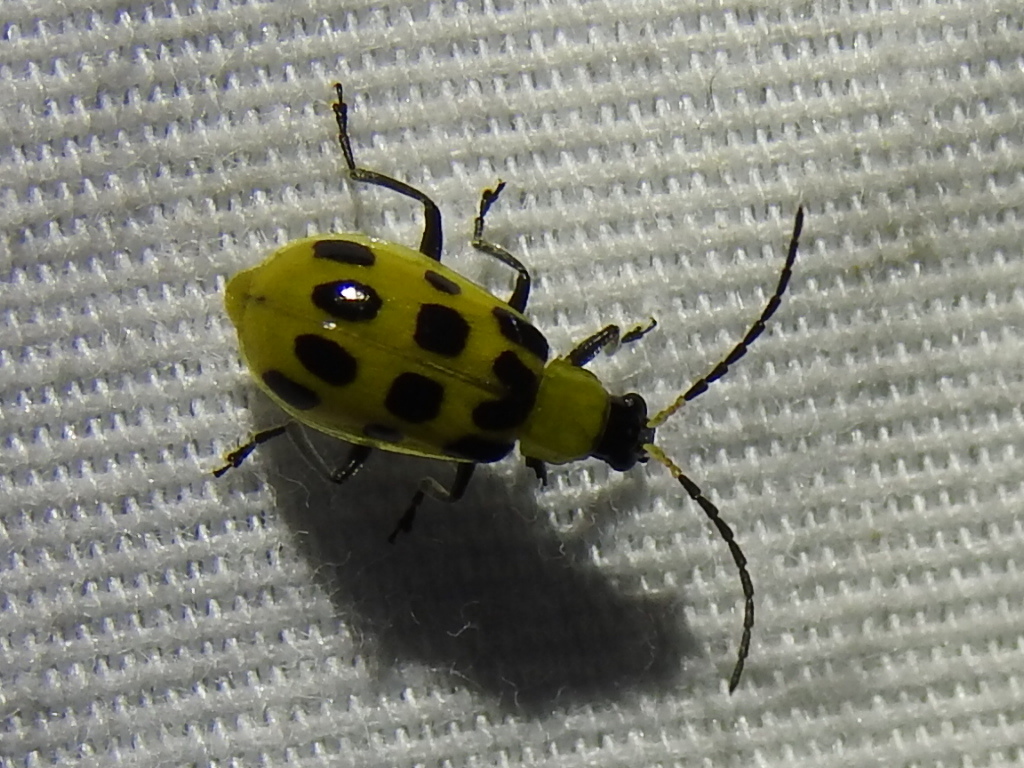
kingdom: Animalia
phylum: Arthropoda
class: Insecta
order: Coleoptera
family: Chrysomelidae
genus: Diabrotica
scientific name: Diabrotica undecimpunctata
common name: Spotted cucumber beetle
